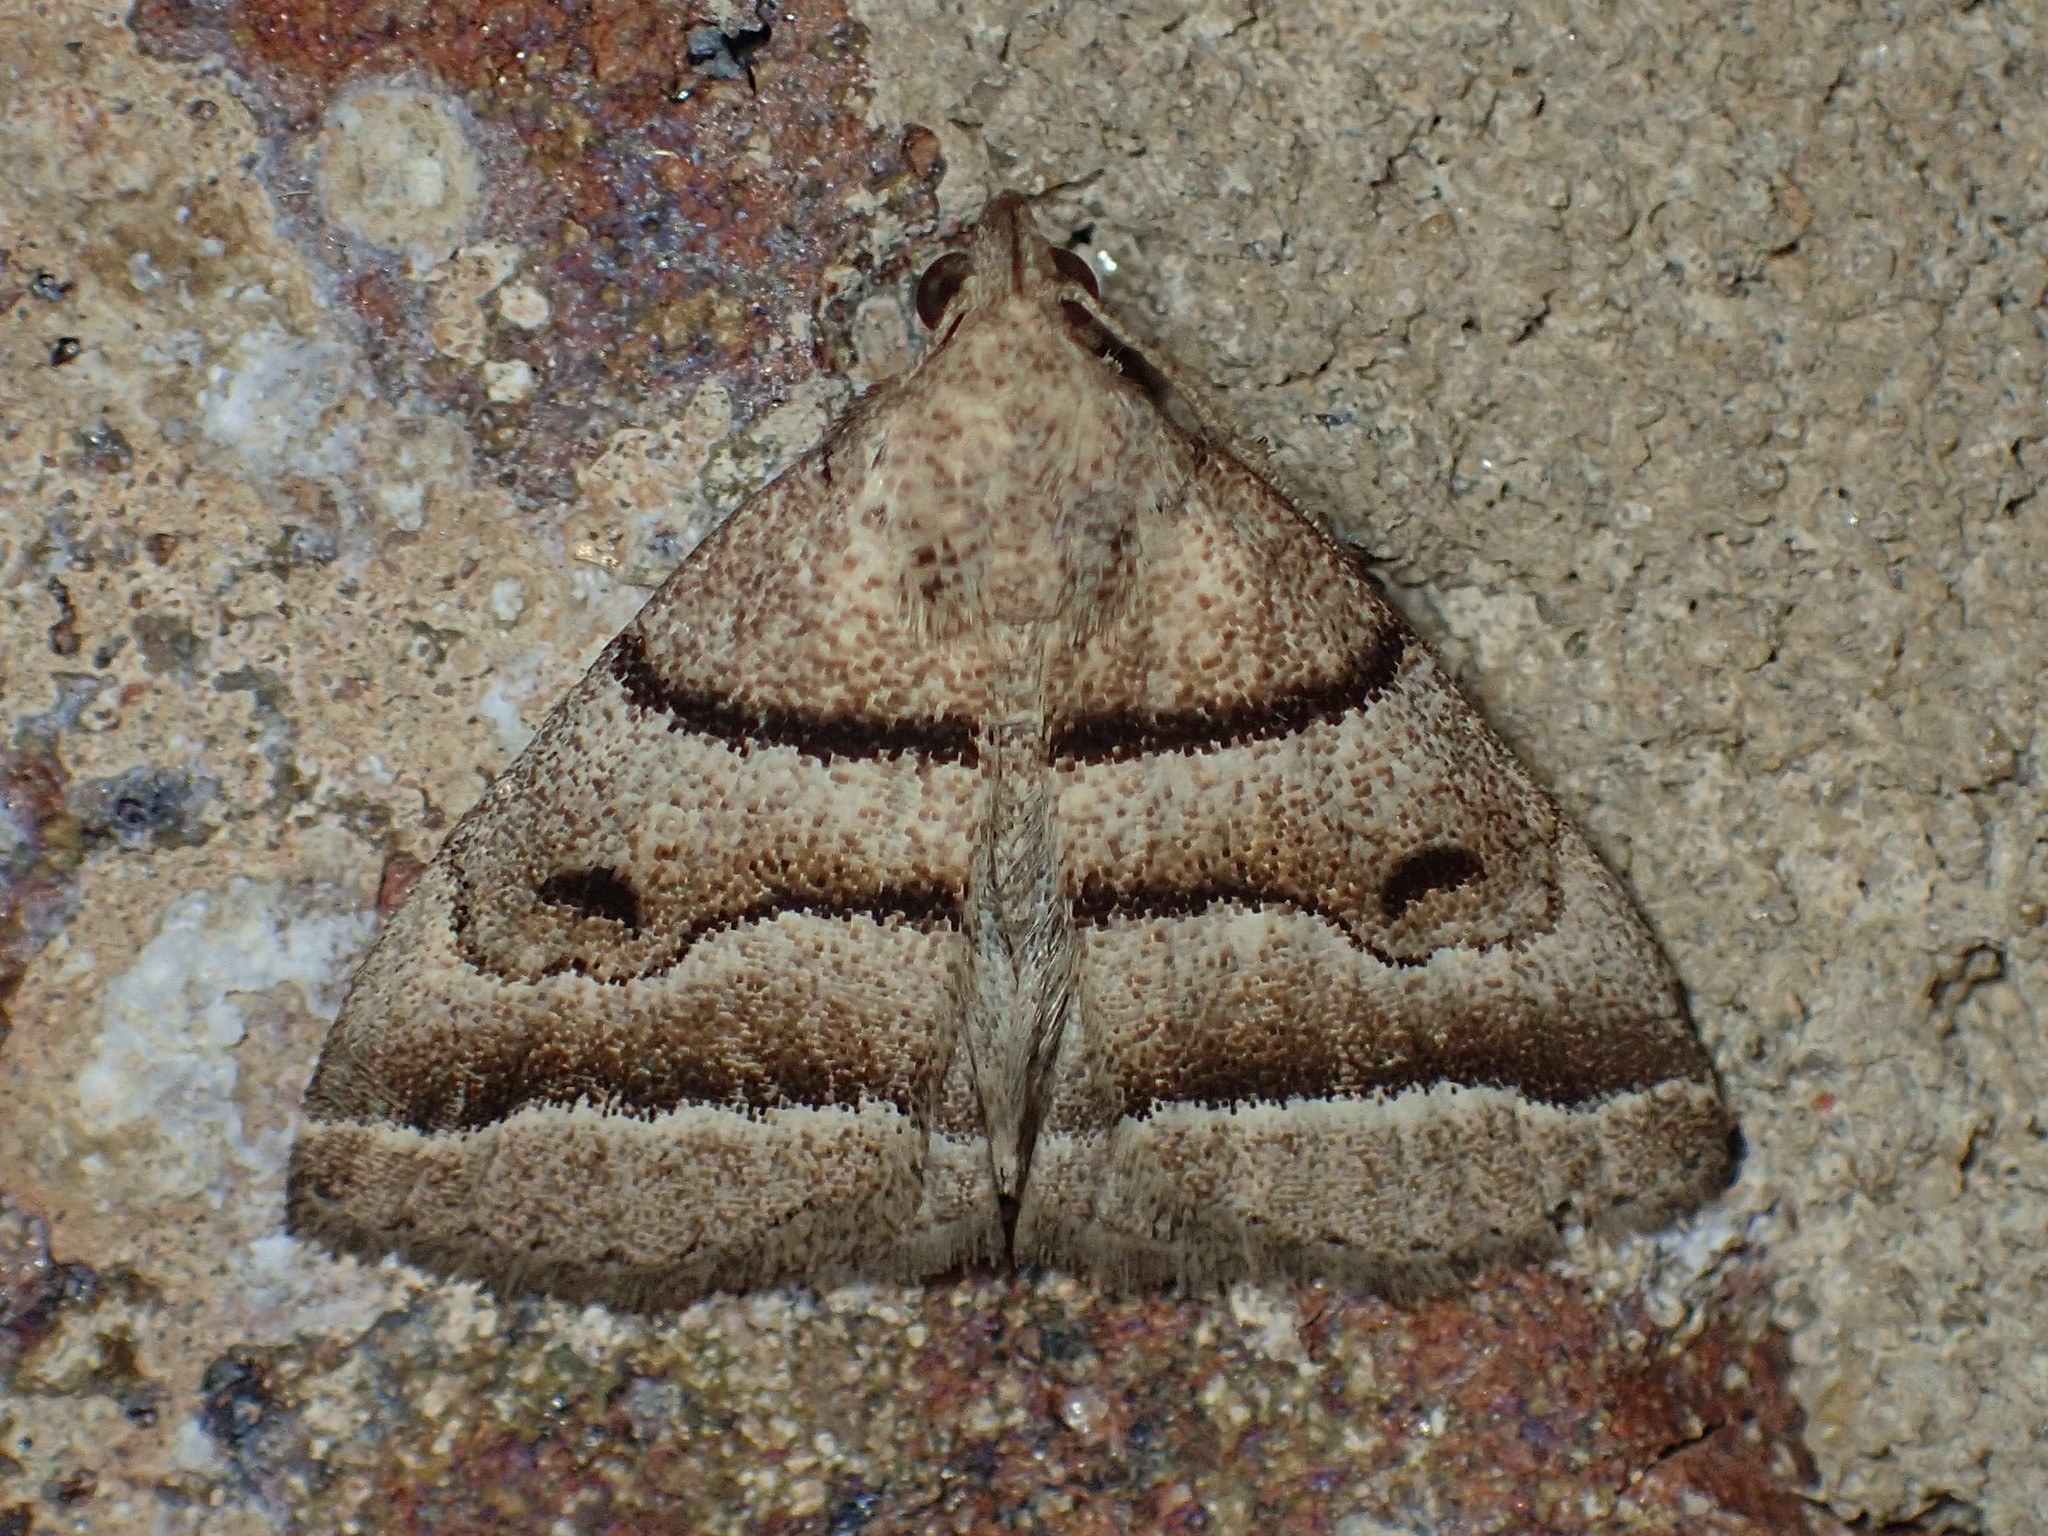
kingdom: Animalia
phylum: Arthropoda
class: Insecta
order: Lepidoptera
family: Erebidae
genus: Zanclognatha
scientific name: Zanclognatha atrilineella
